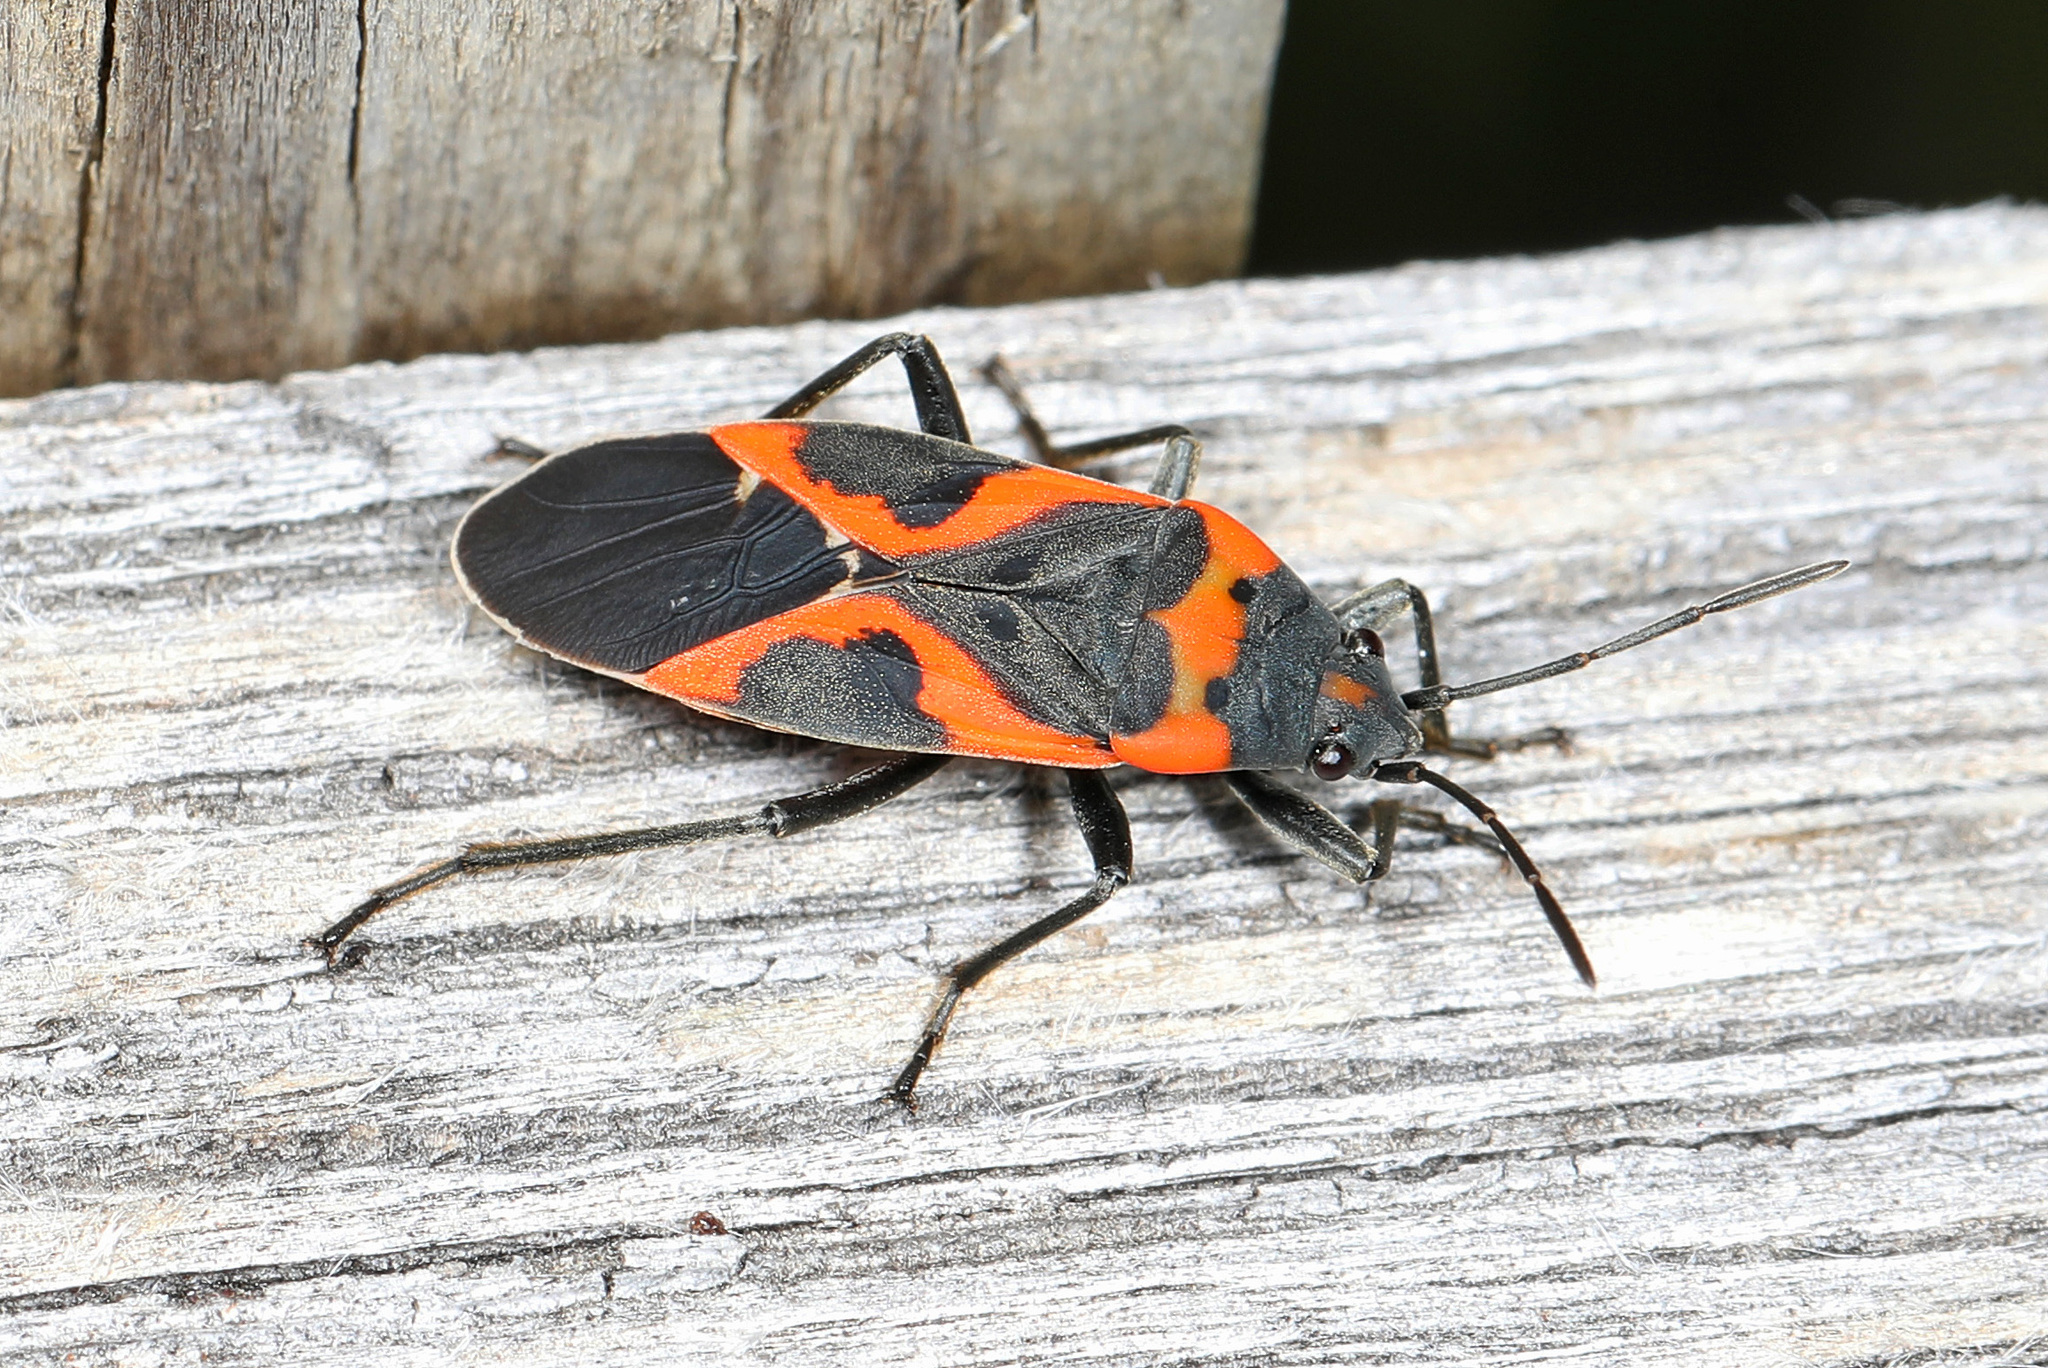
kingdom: Animalia
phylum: Arthropoda
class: Insecta
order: Hemiptera
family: Lygaeidae
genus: Lygaeus
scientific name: Lygaeus kalmii
